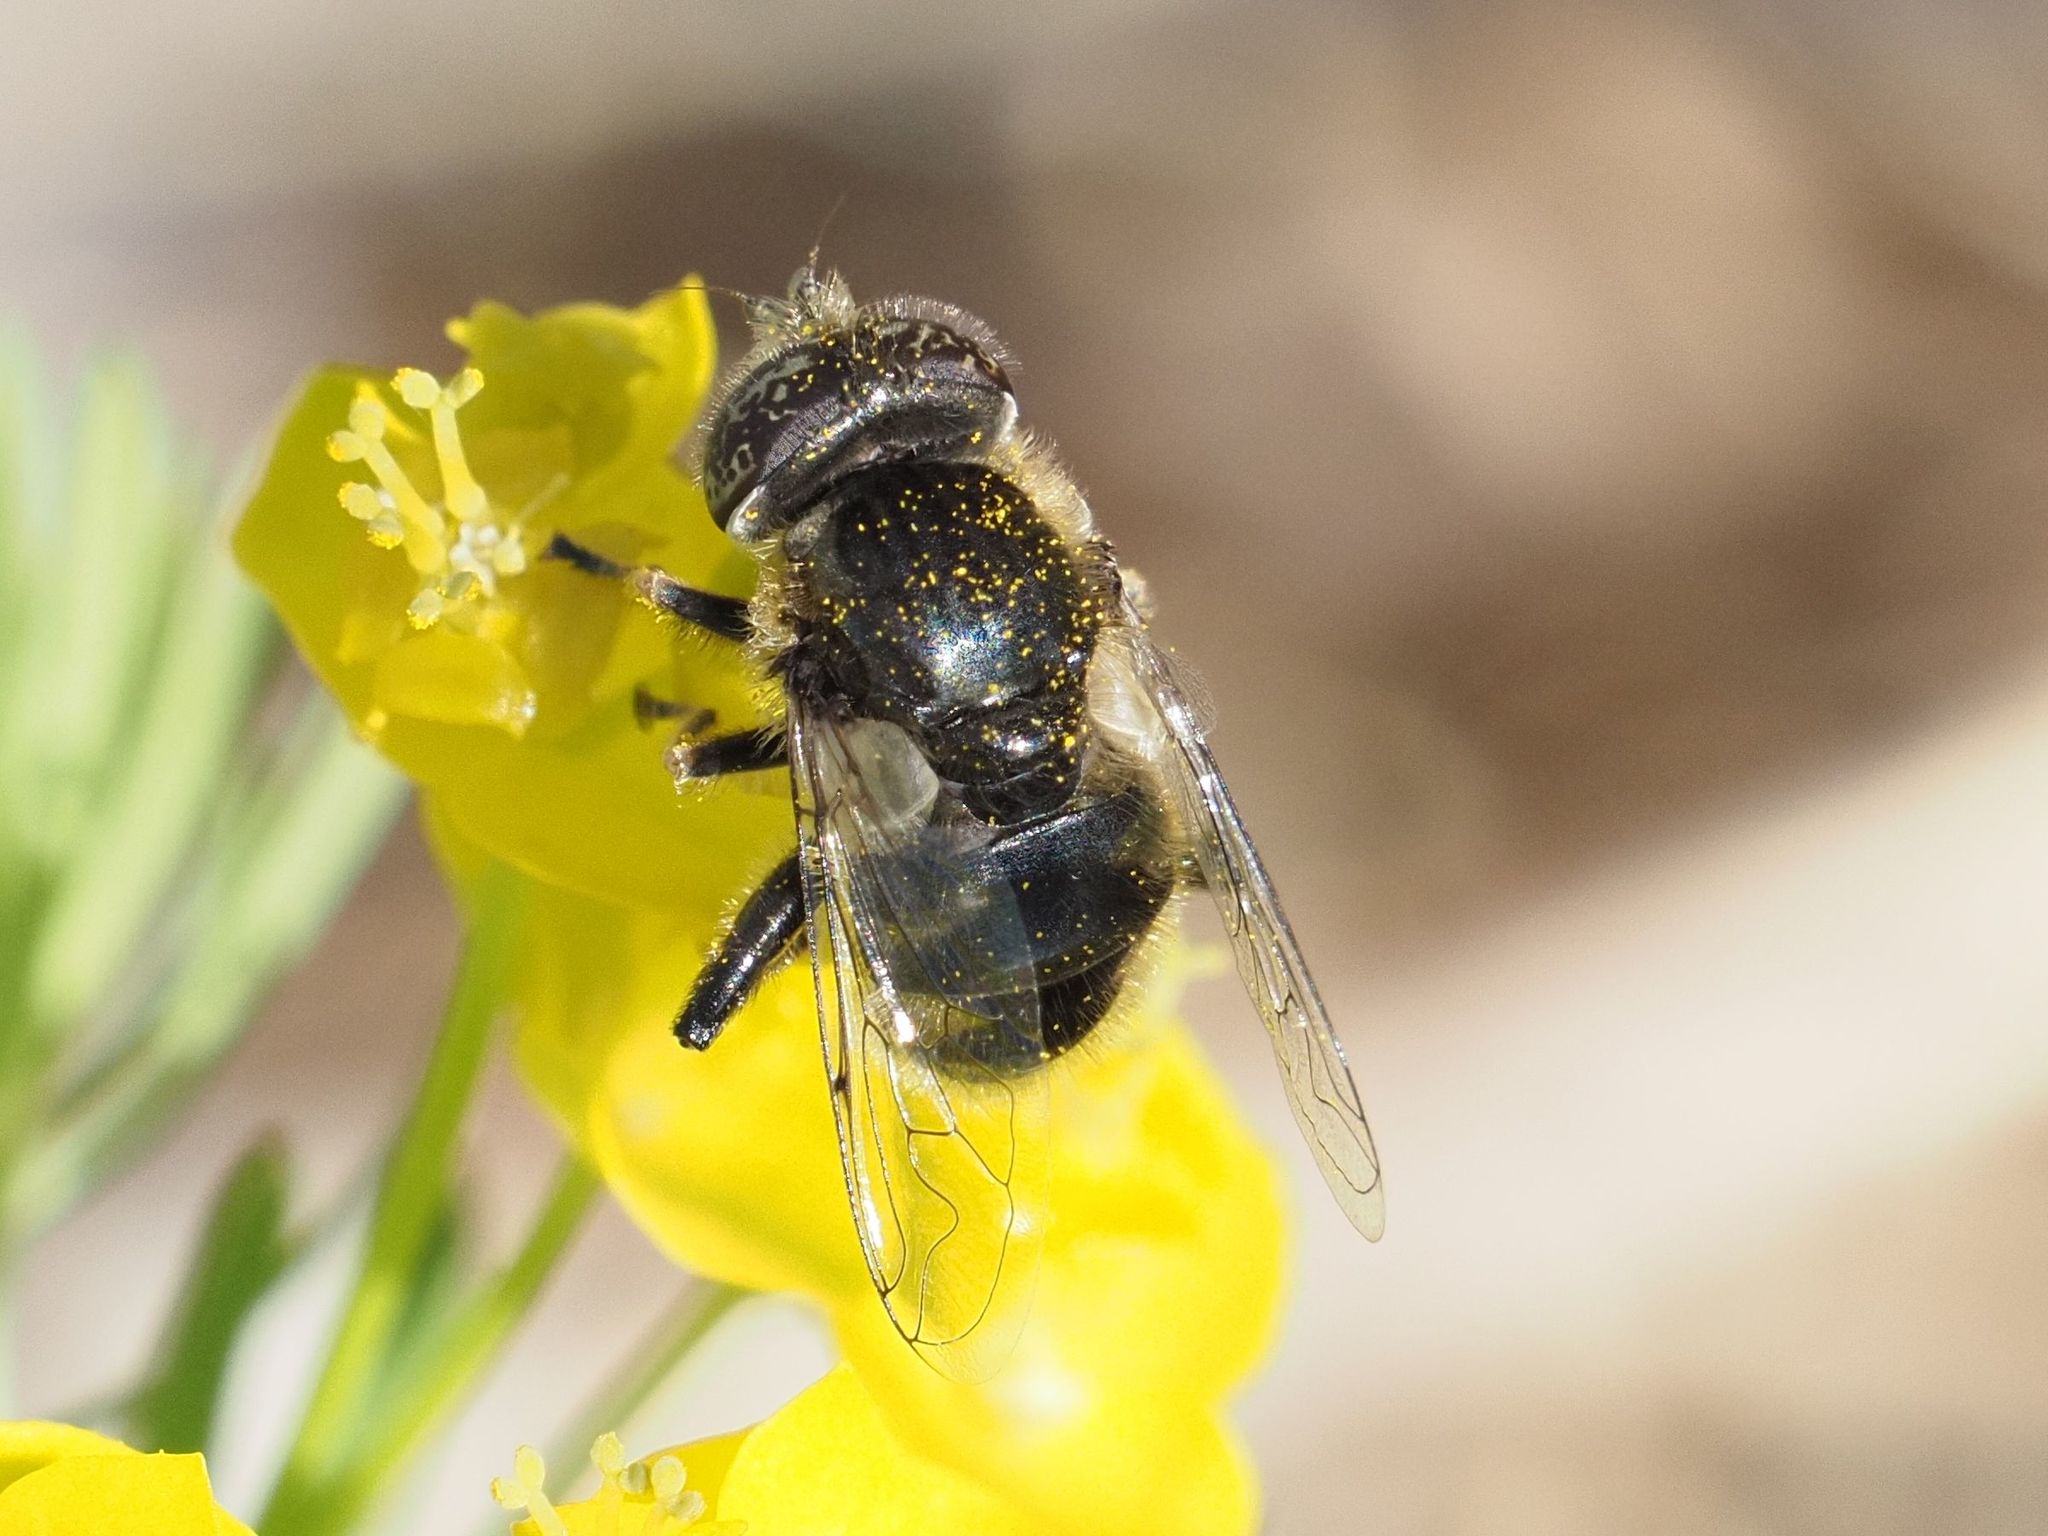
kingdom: Animalia
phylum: Arthropoda
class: Insecta
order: Diptera
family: Syrphidae
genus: Eristalinus
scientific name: Eristalinus sepulchralis
